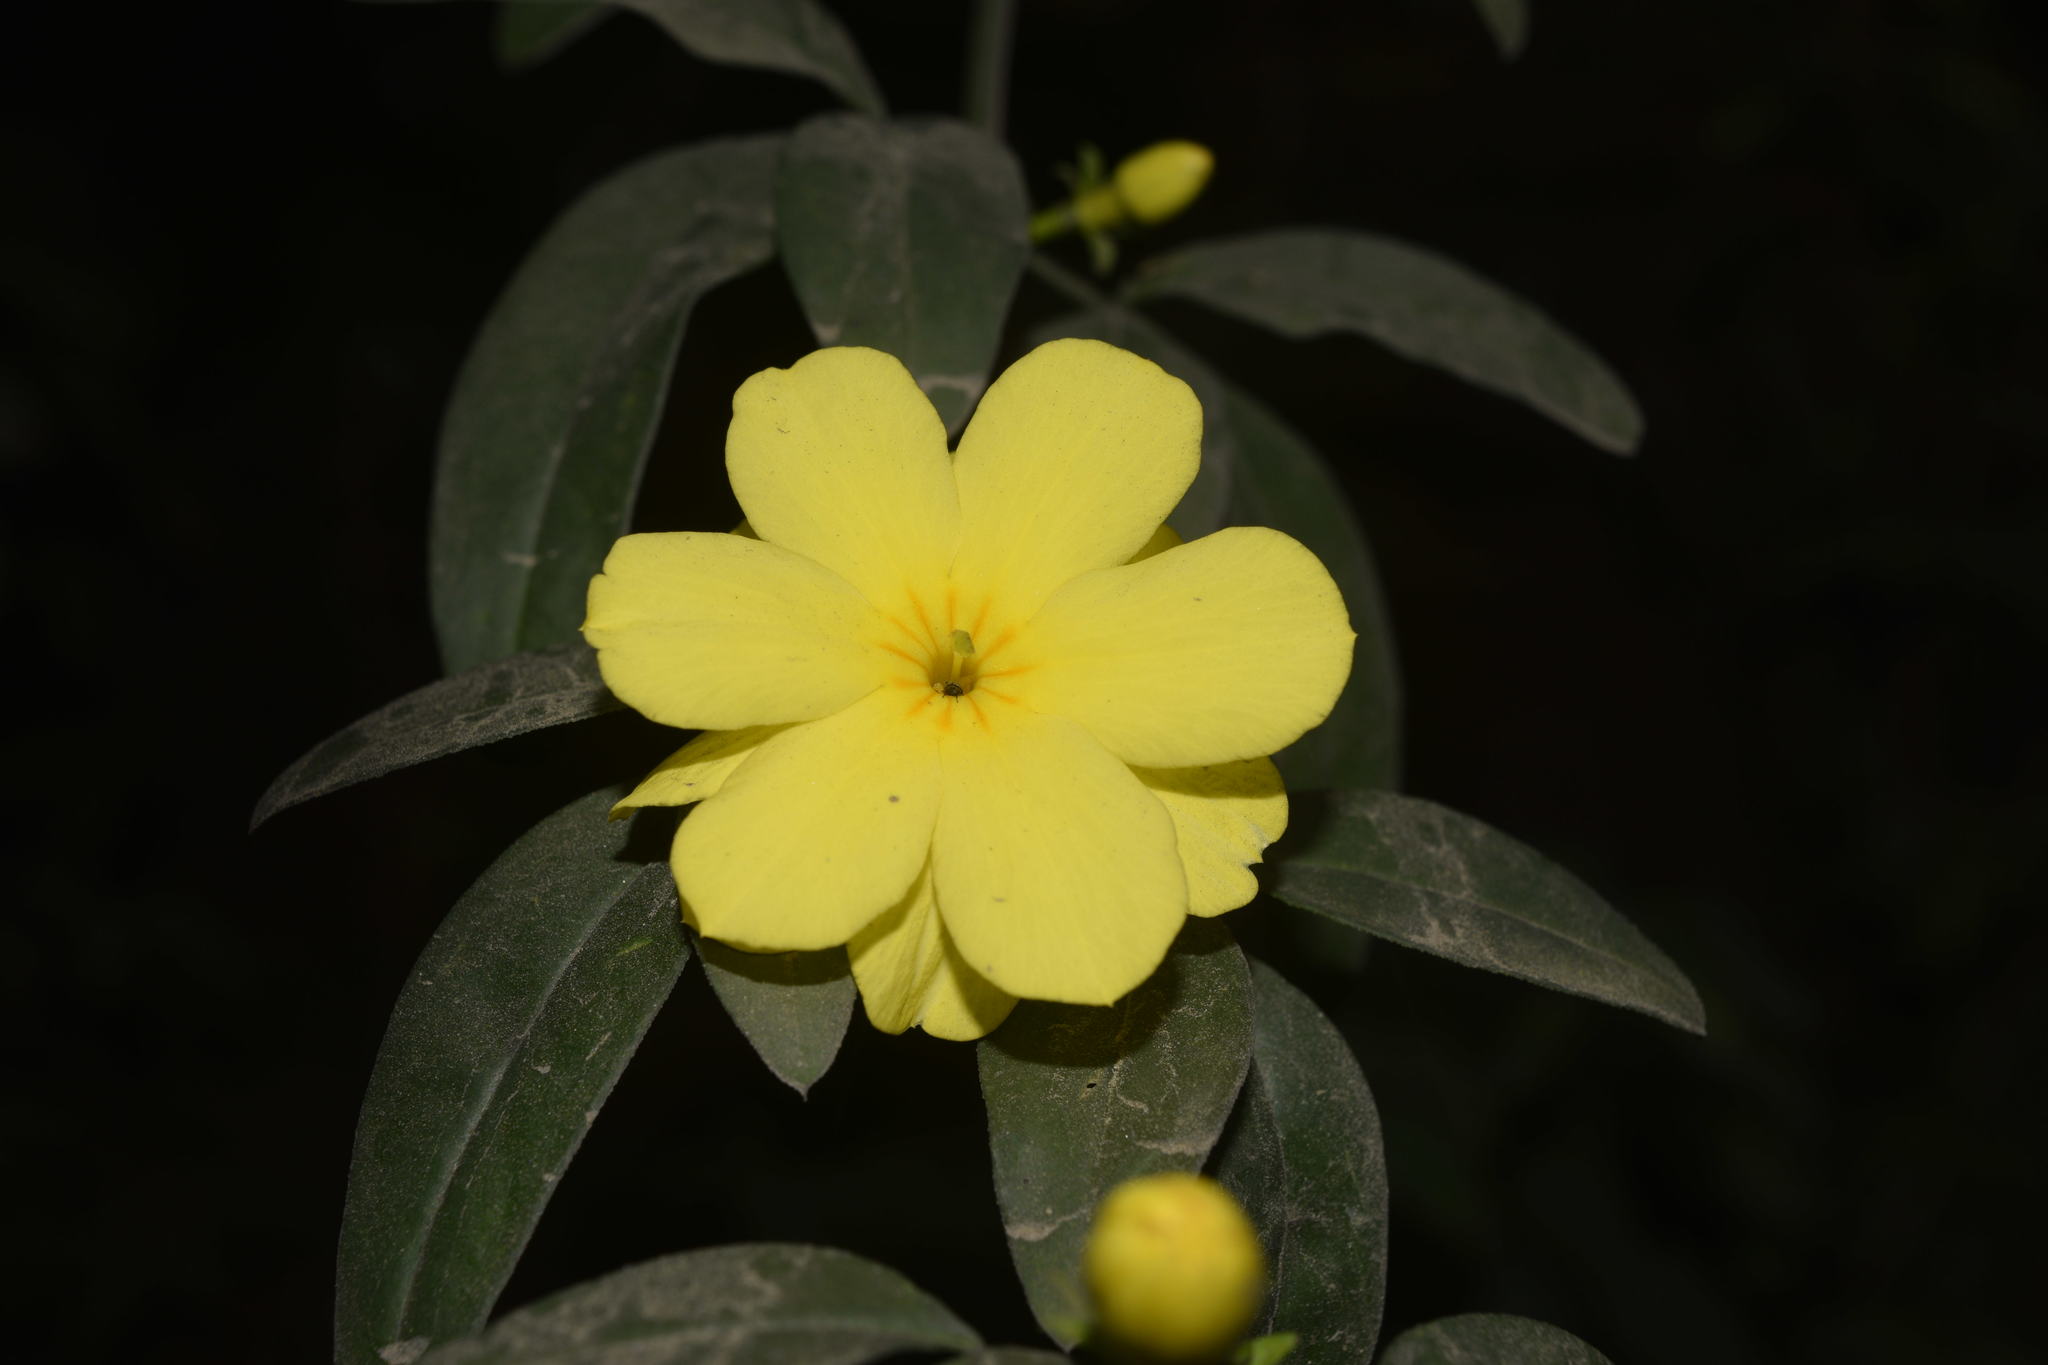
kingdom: Plantae
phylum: Tracheophyta
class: Magnoliopsida
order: Lamiales
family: Oleaceae
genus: Jasminum
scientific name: Jasminum mesnyi
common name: Japanese jasmine
